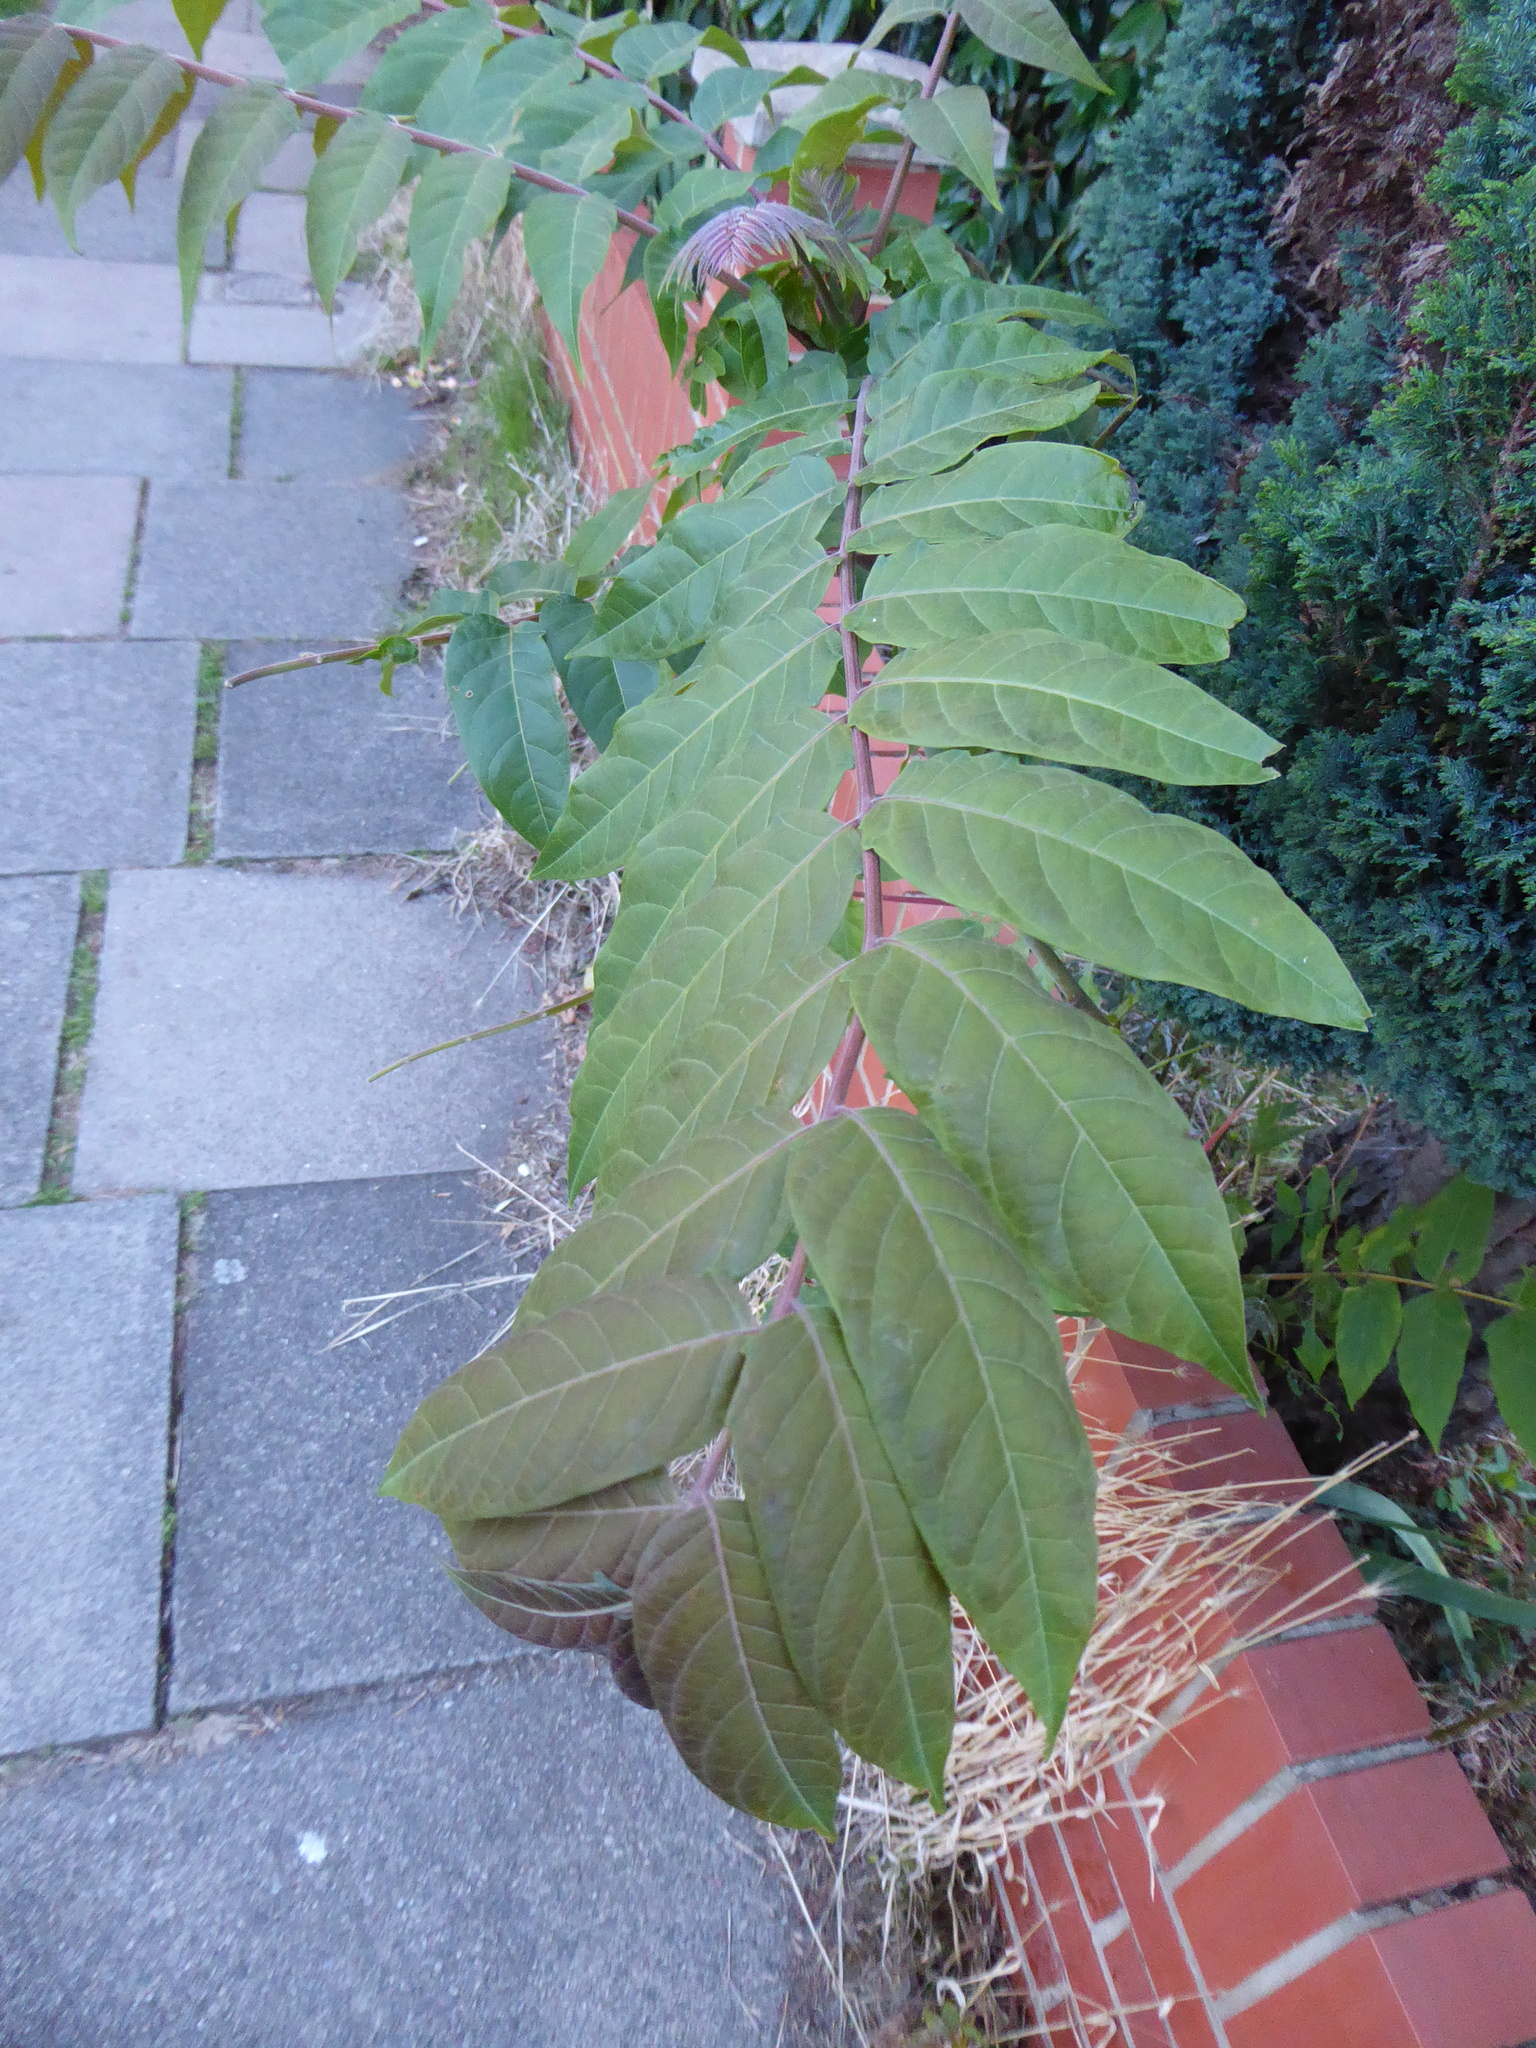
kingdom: Plantae
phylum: Tracheophyta
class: Magnoliopsida
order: Sapindales
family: Simaroubaceae
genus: Ailanthus
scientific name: Ailanthus altissima
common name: Tree-of-heaven
